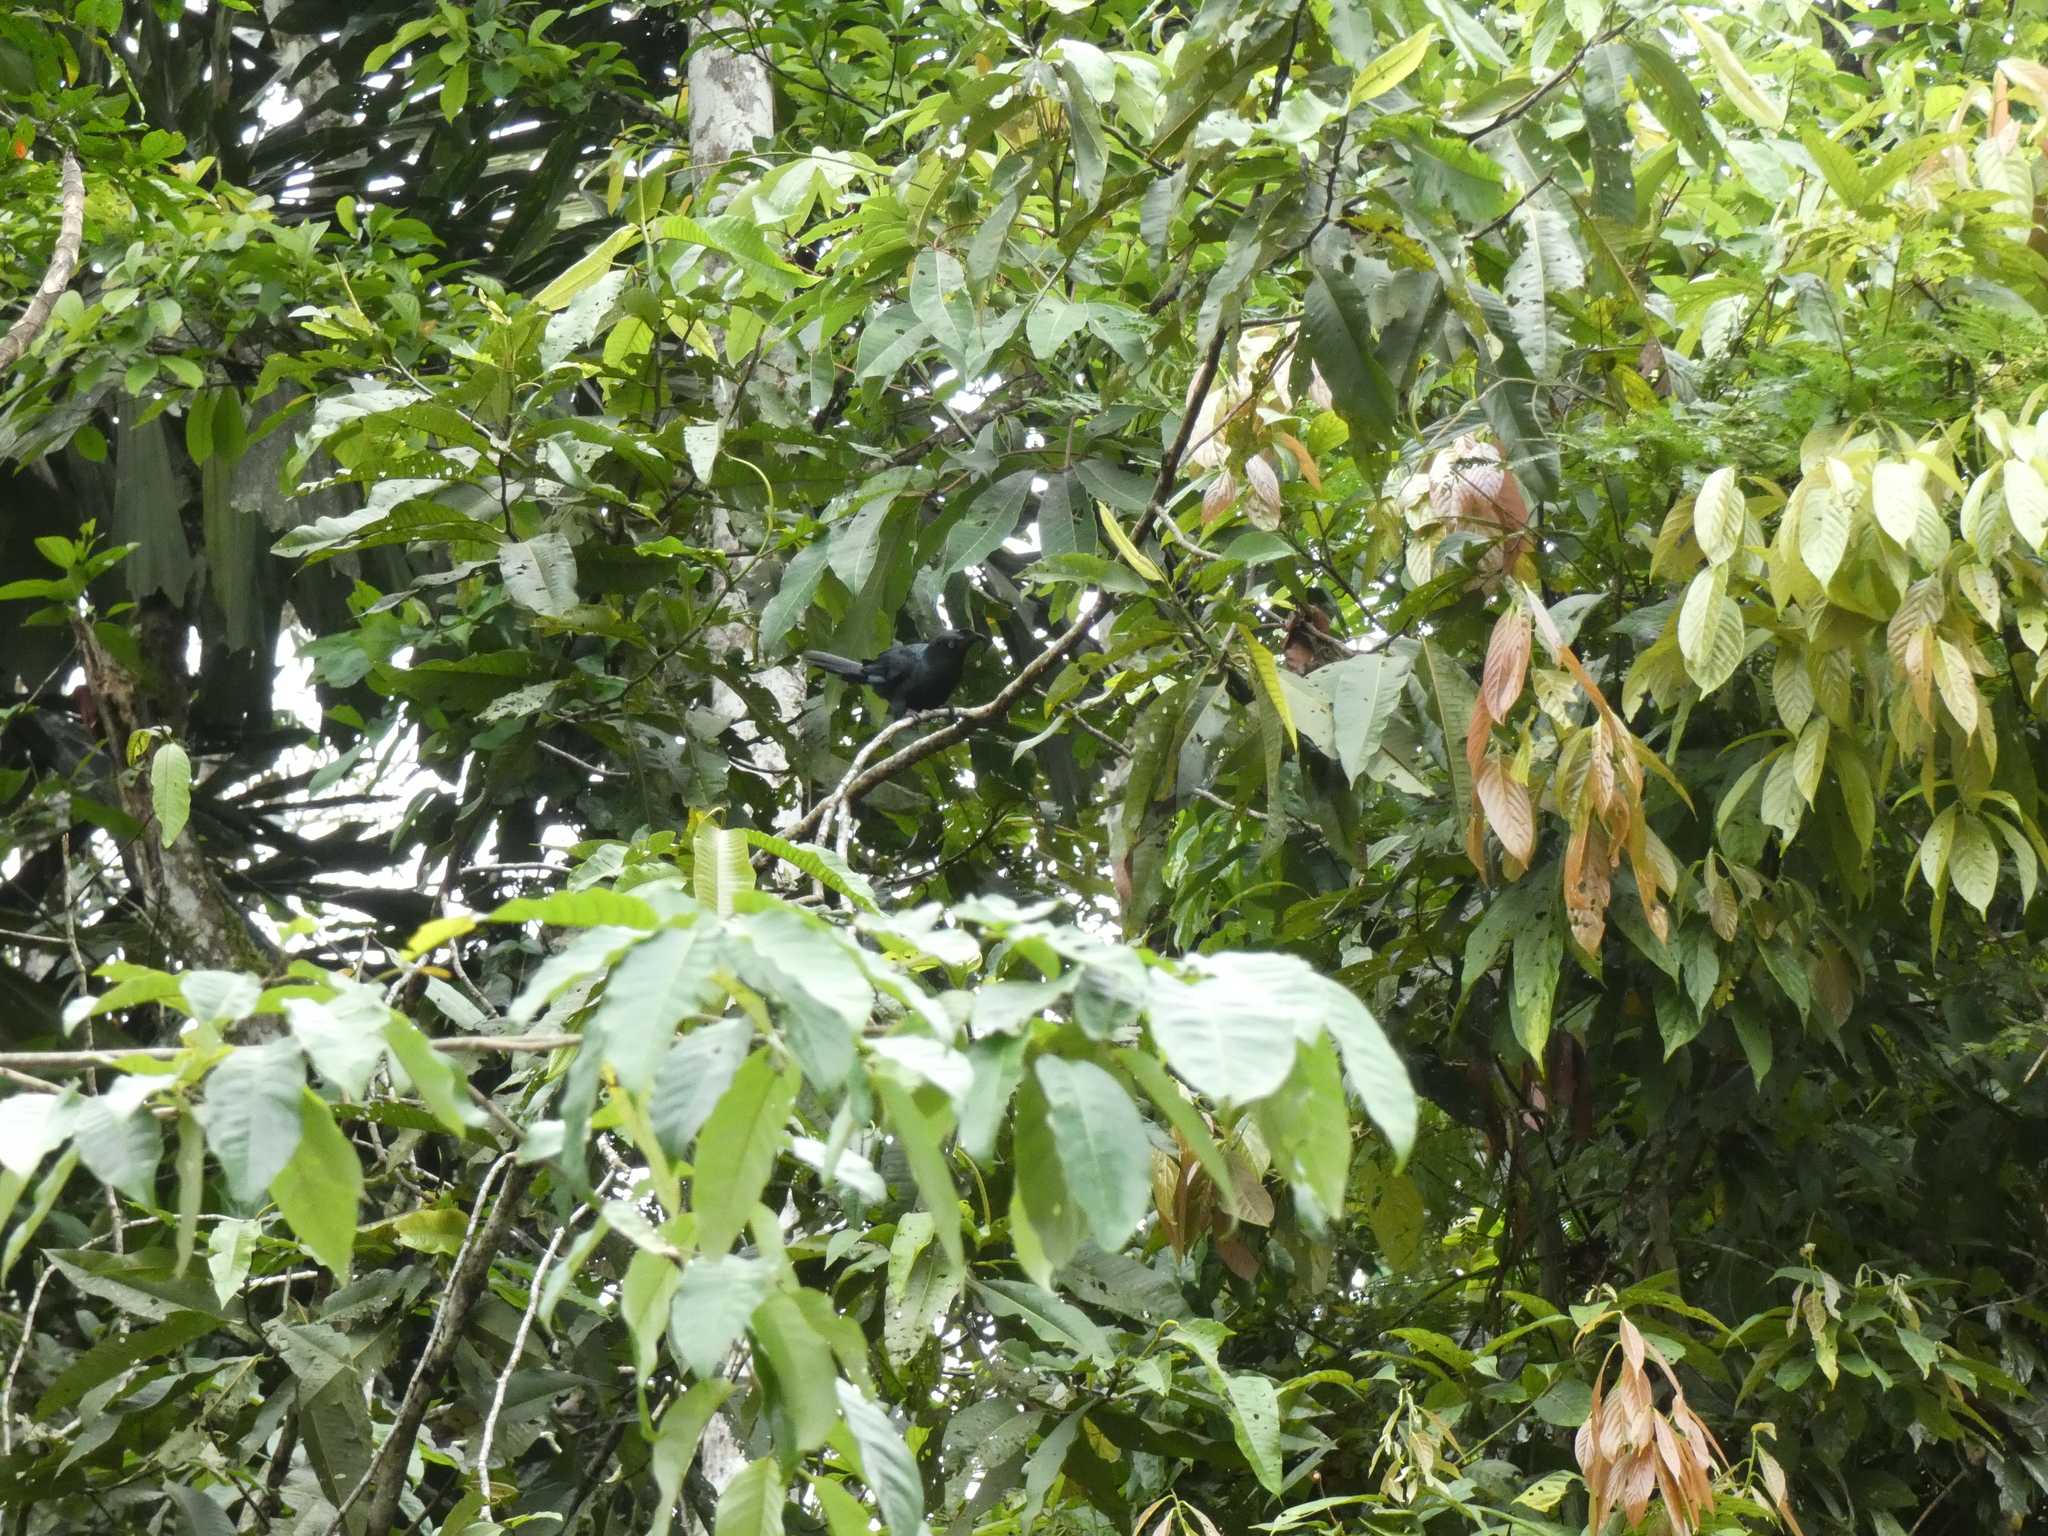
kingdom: Animalia
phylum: Chordata
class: Aves
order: Cuculiformes
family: Cuculidae
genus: Crotophaga
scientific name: Crotophaga major
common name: Greater ani
